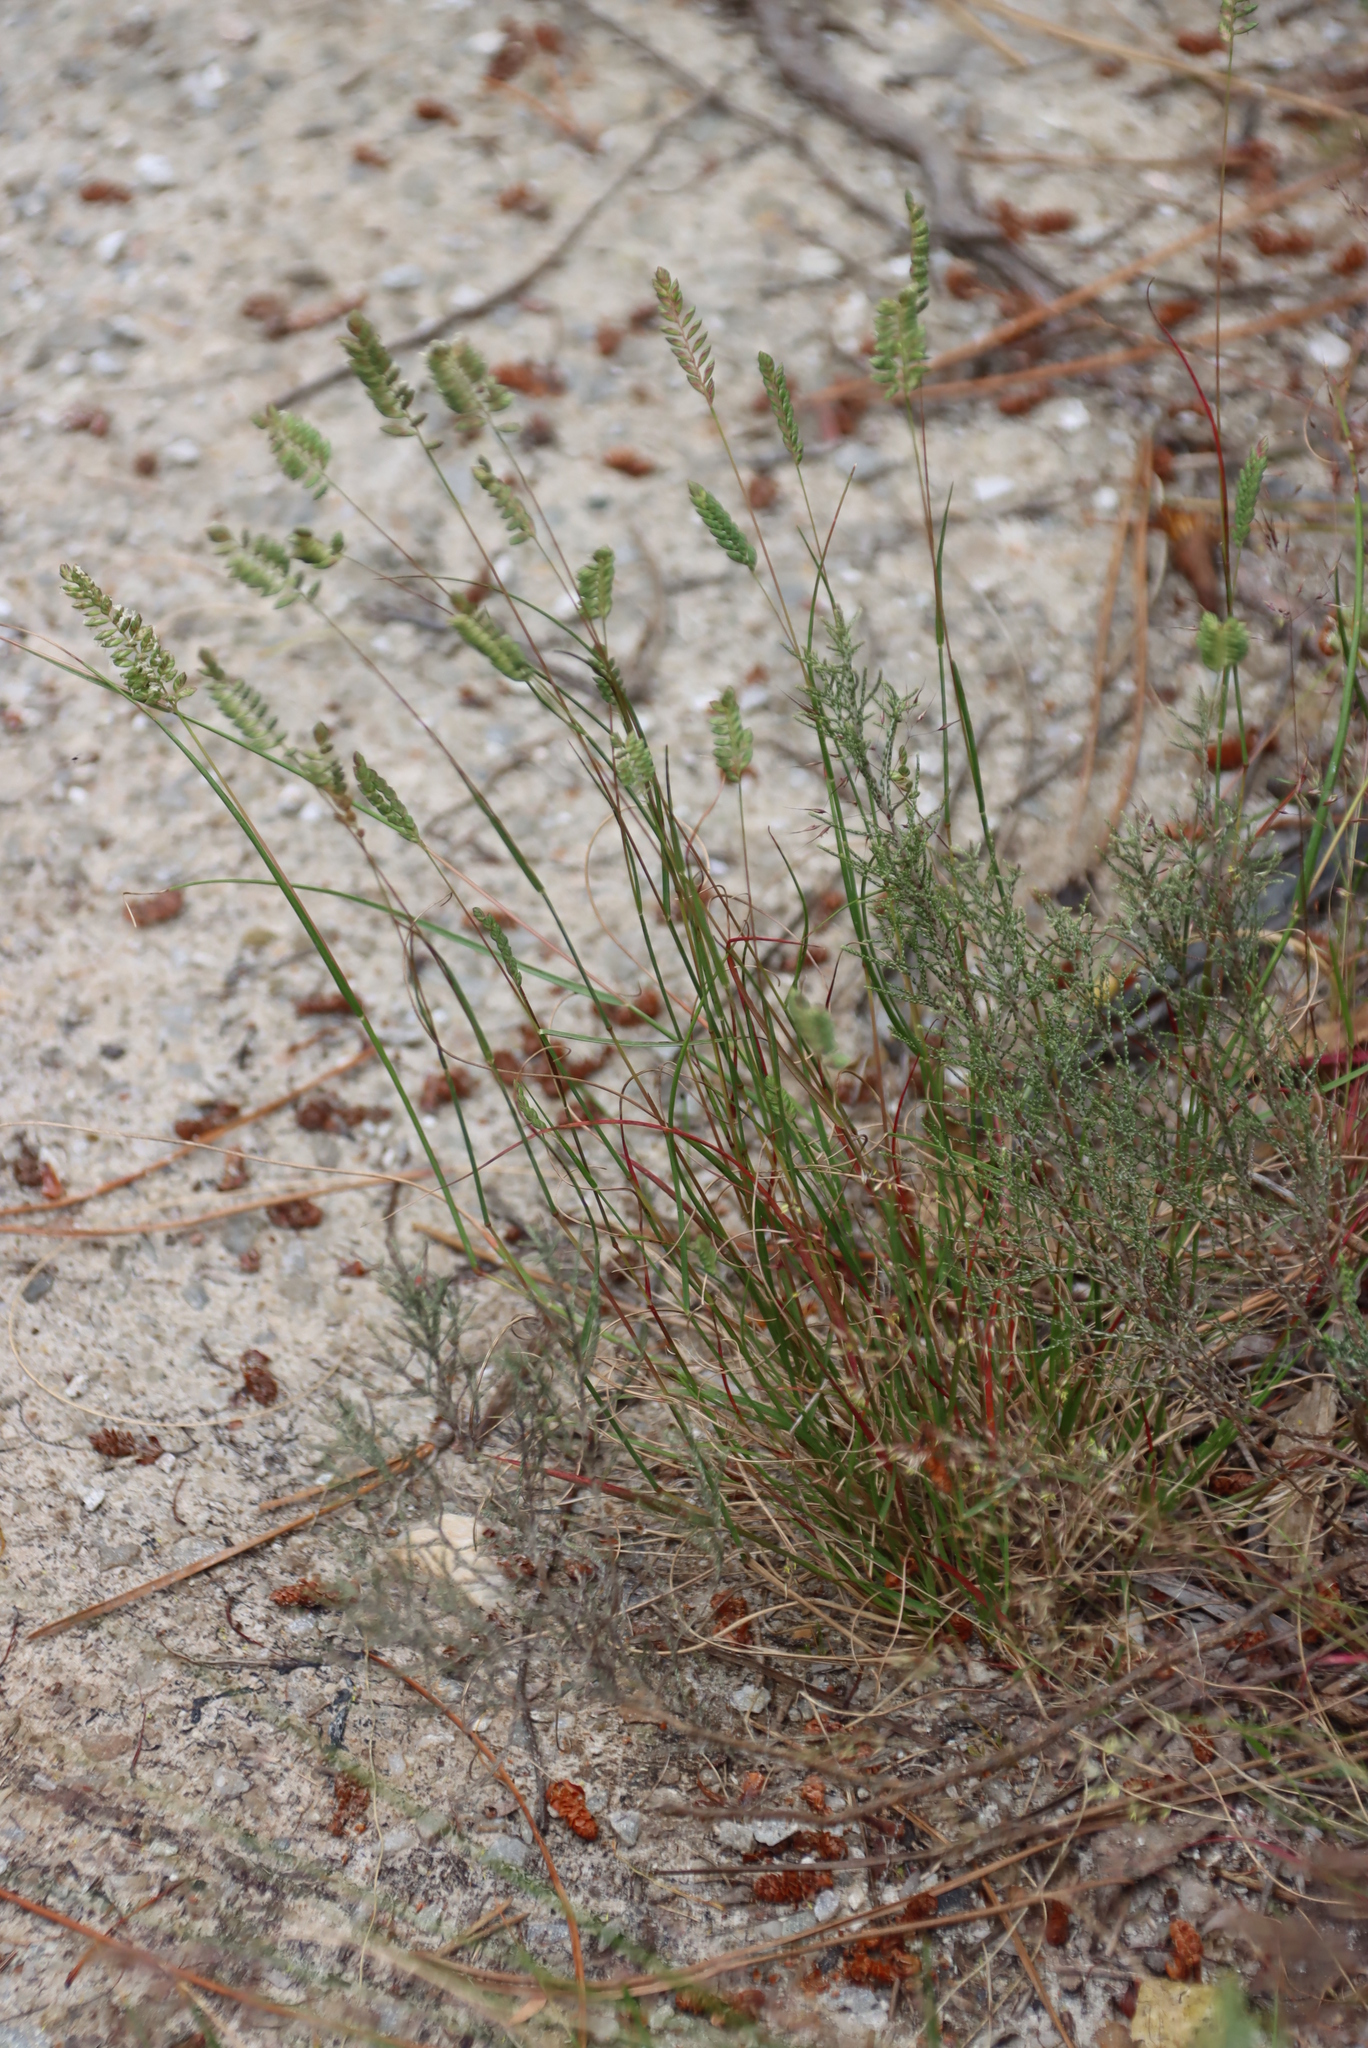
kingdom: Plantae
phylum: Tracheophyta
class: Liliopsida
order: Poales
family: Poaceae
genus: Tribolium
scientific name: Tribolium uniolae
